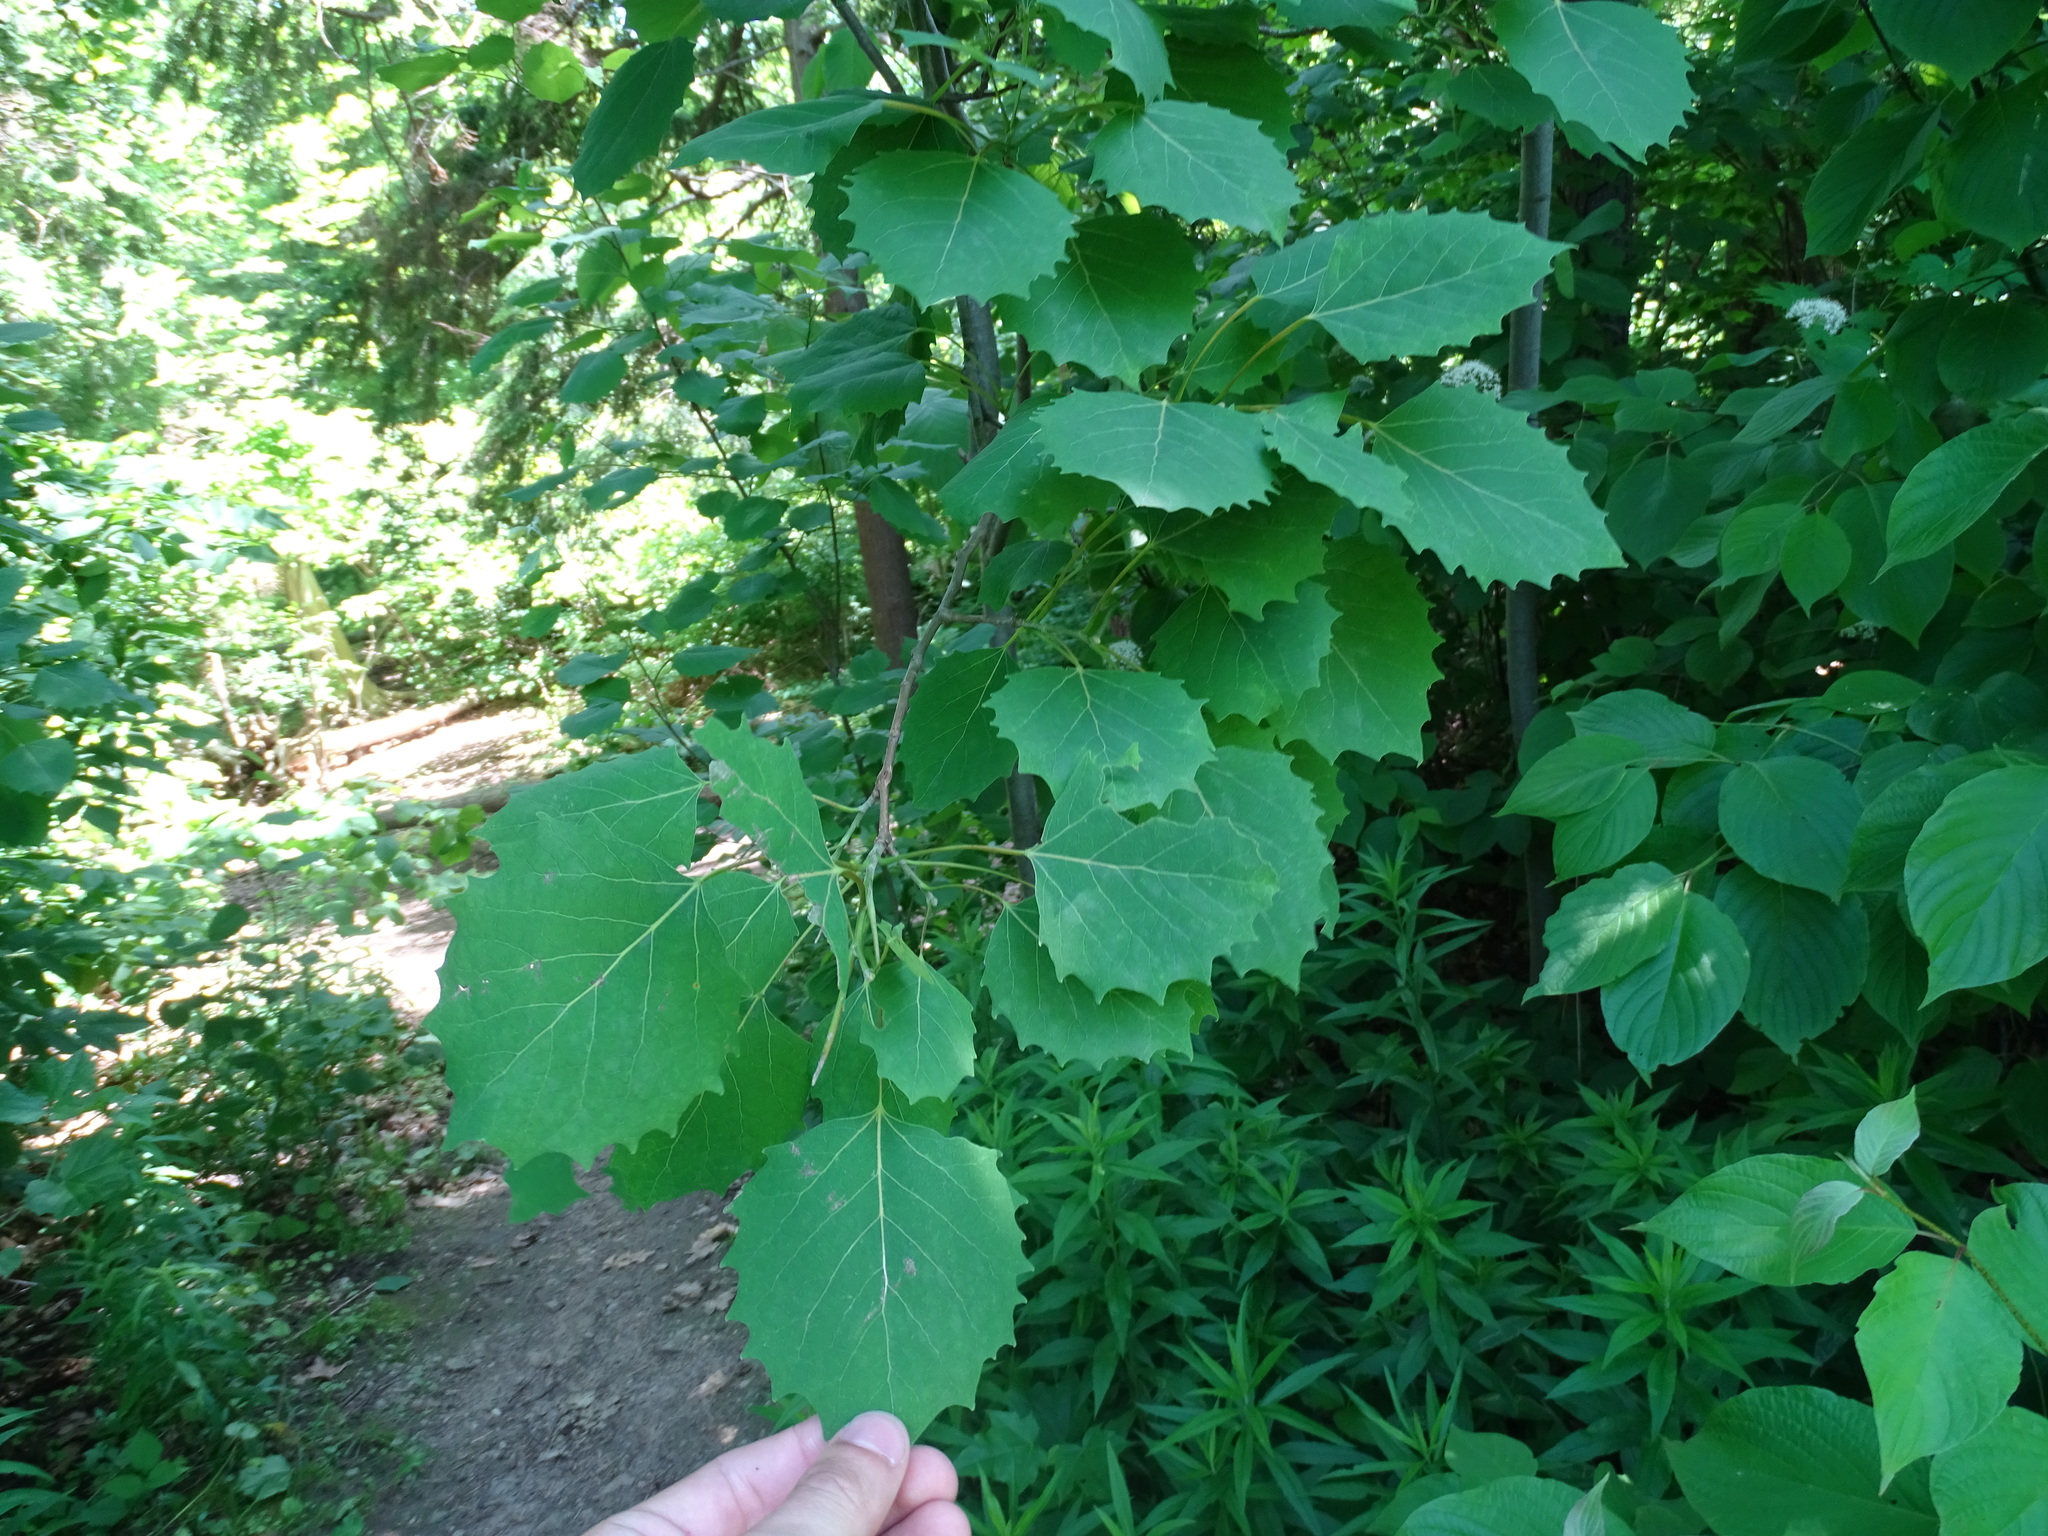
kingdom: Plantae
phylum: Tracheophyta
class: Magnoliopsida
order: Malpighiales
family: Salicaceae
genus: Populus
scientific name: Populus grandidentata
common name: Bigtooth aspen
